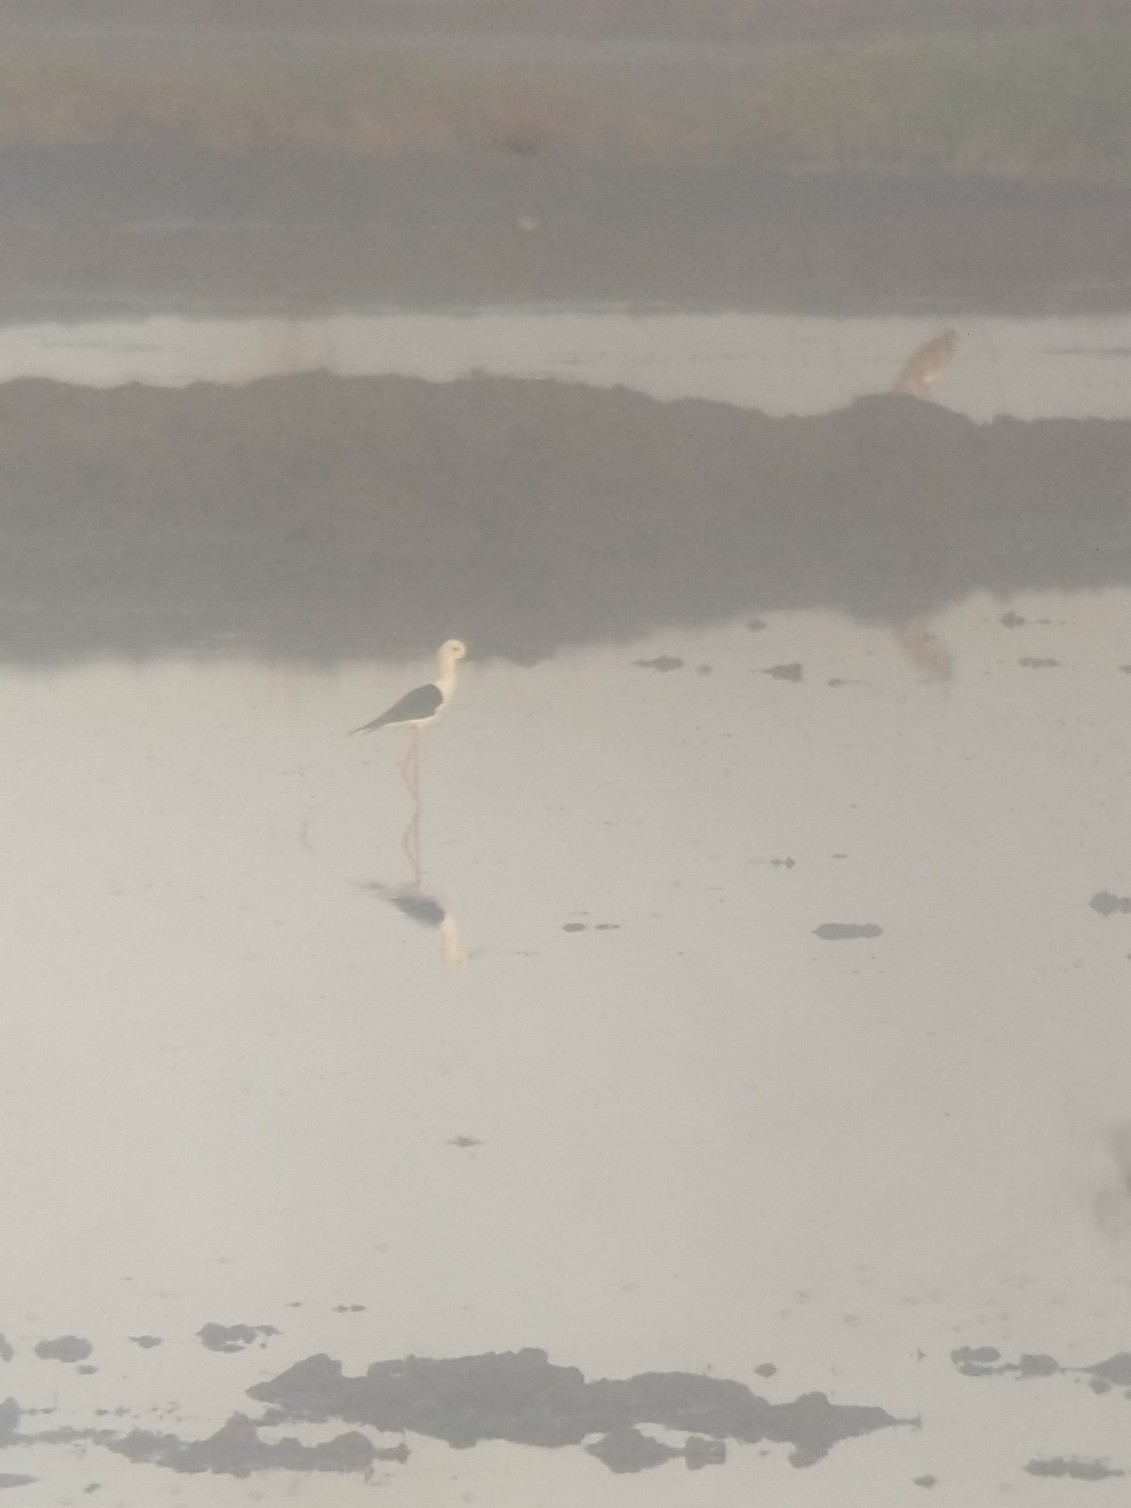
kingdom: Animalia
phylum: Chordata
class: Aves
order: Charadriiformes
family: Recurvirostridae
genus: Himantopus
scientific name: Himantopus himantopus
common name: Black-winged stilt
